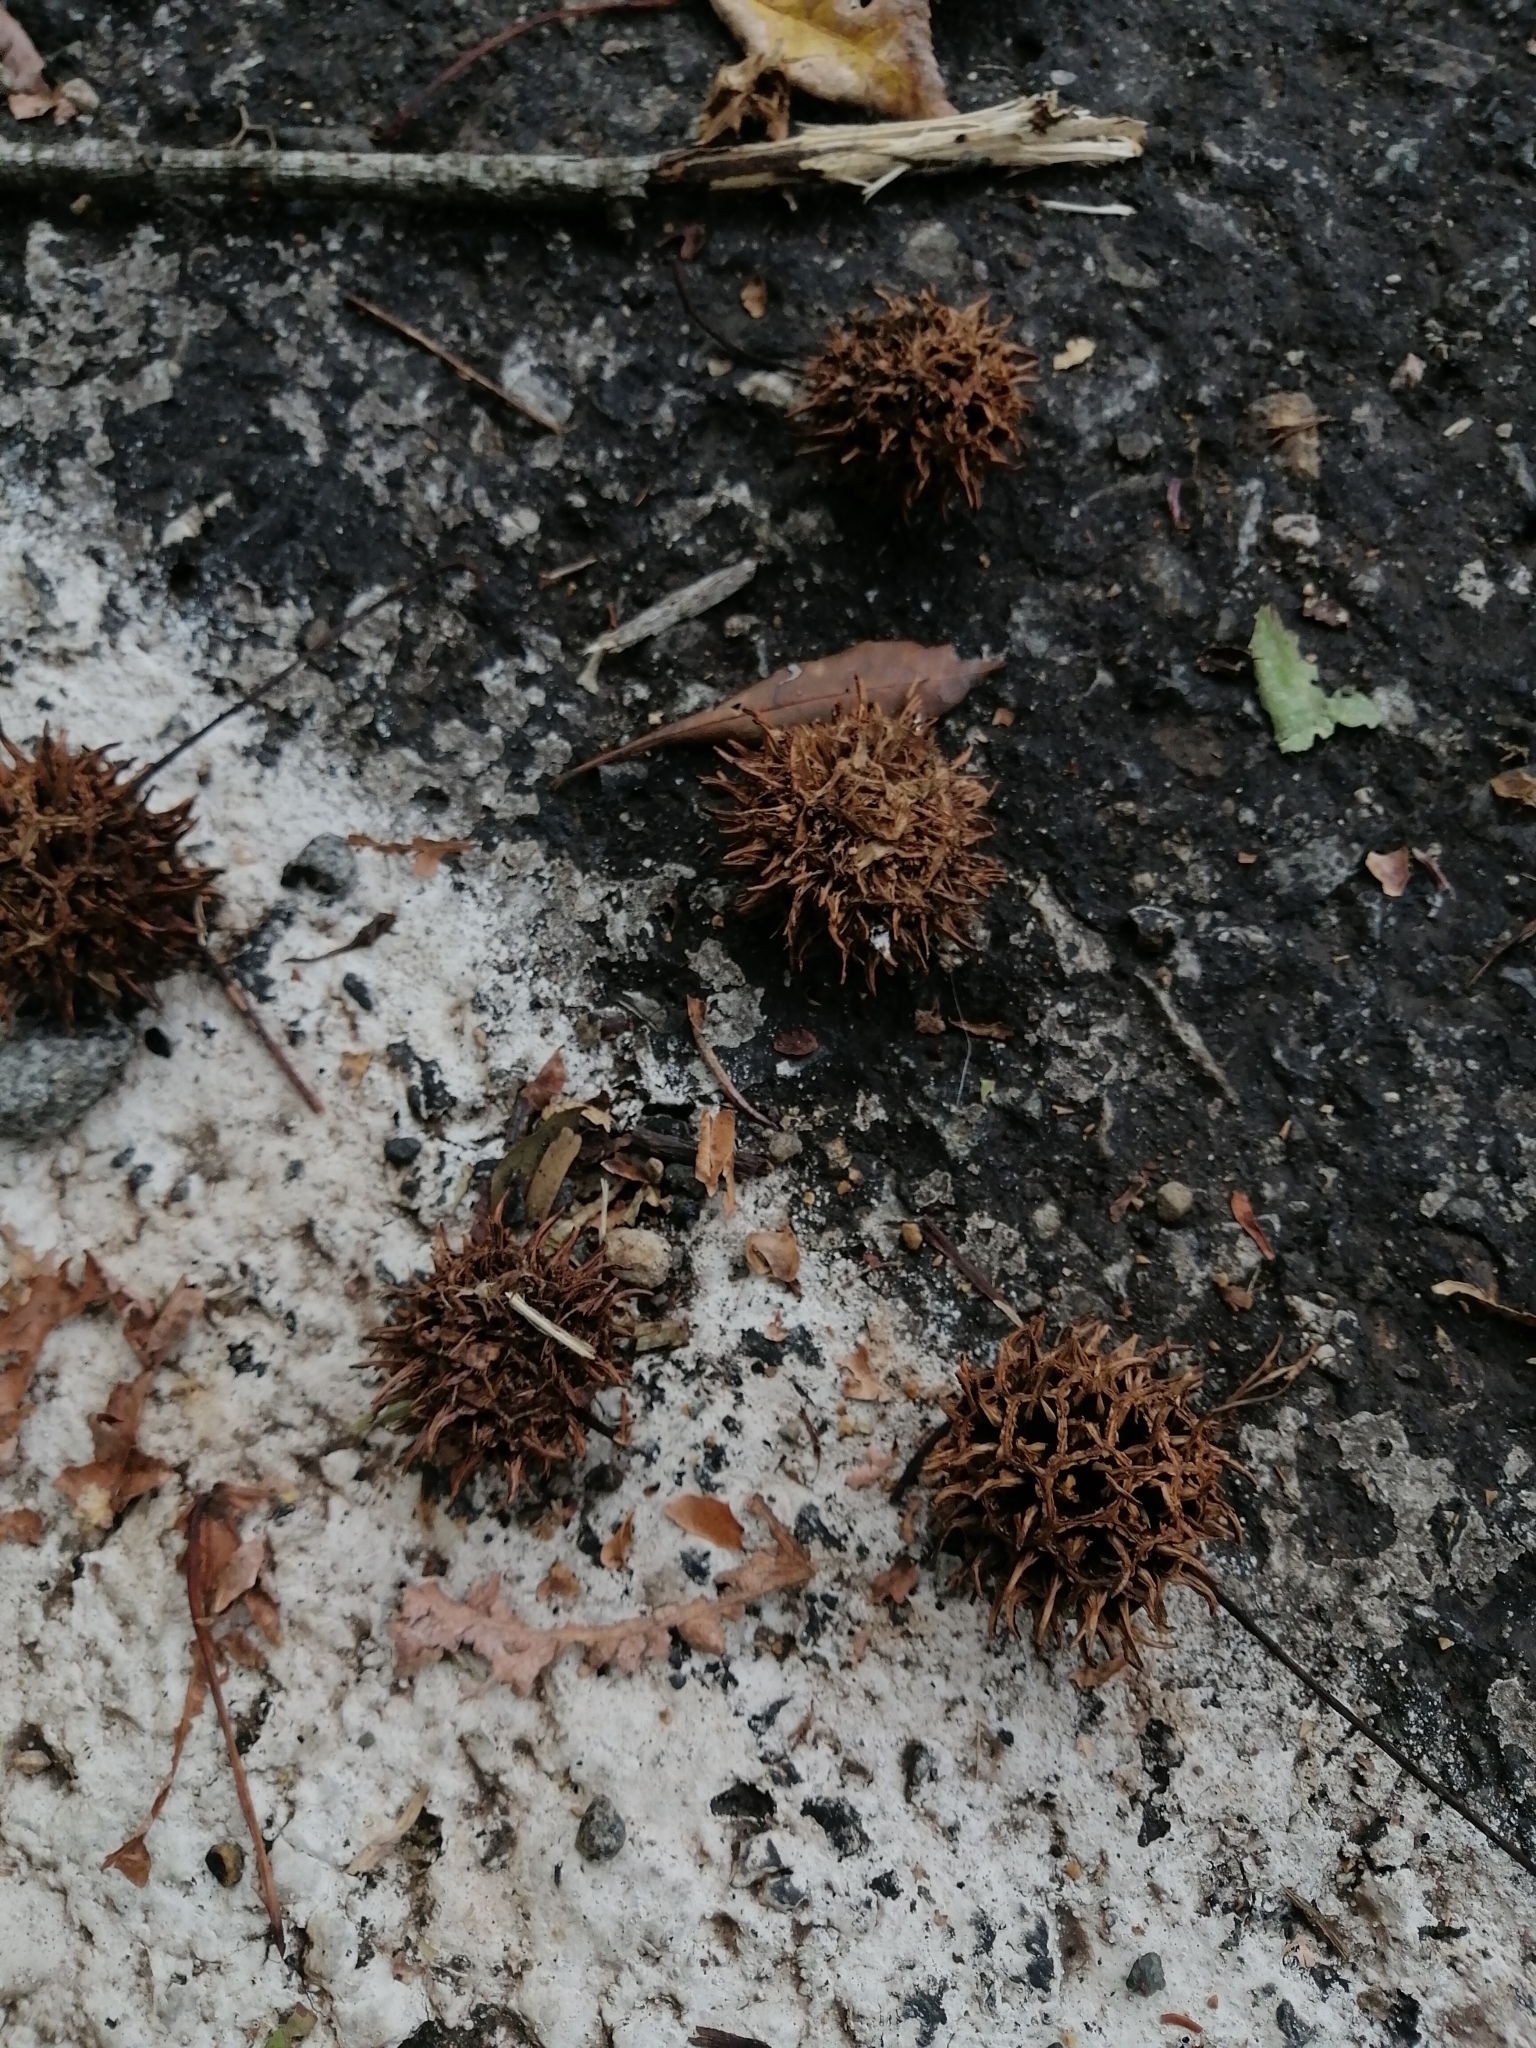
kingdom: Plantae
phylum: Tracheophyta
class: Magnoliopsida
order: Saxifragales
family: Altingiaceae
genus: Liquidambar
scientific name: Liquidambar styraciflua
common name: Sweet gum
